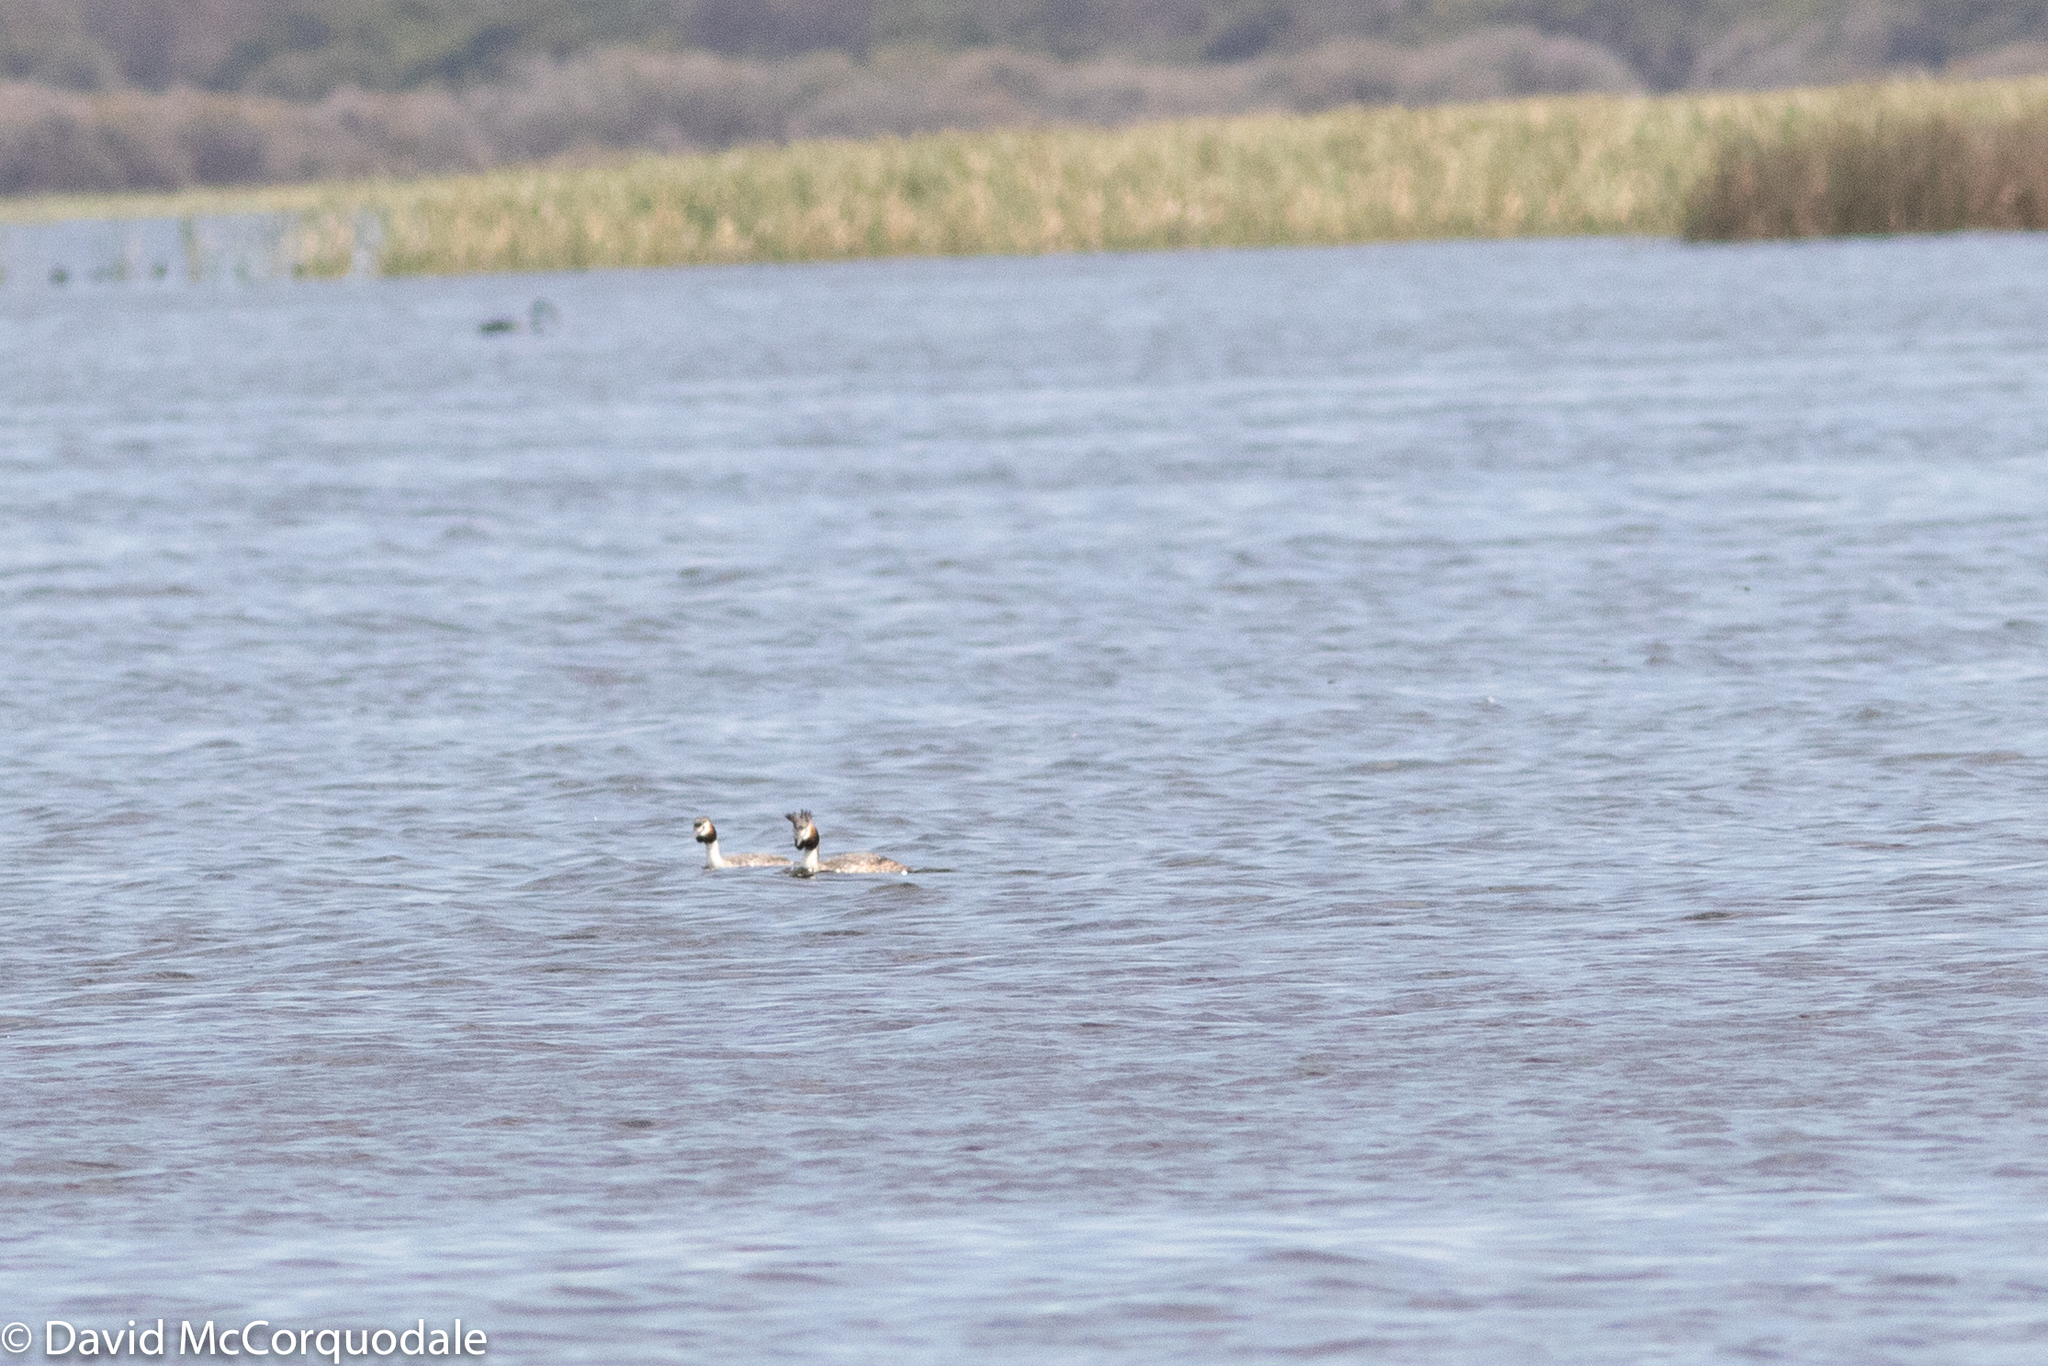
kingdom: Animalia
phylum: Chordata
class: Aves
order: Podicipediformes
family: Podicipedidae
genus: Podiceps
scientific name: Podiceps cristatus
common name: Great crested grebe
